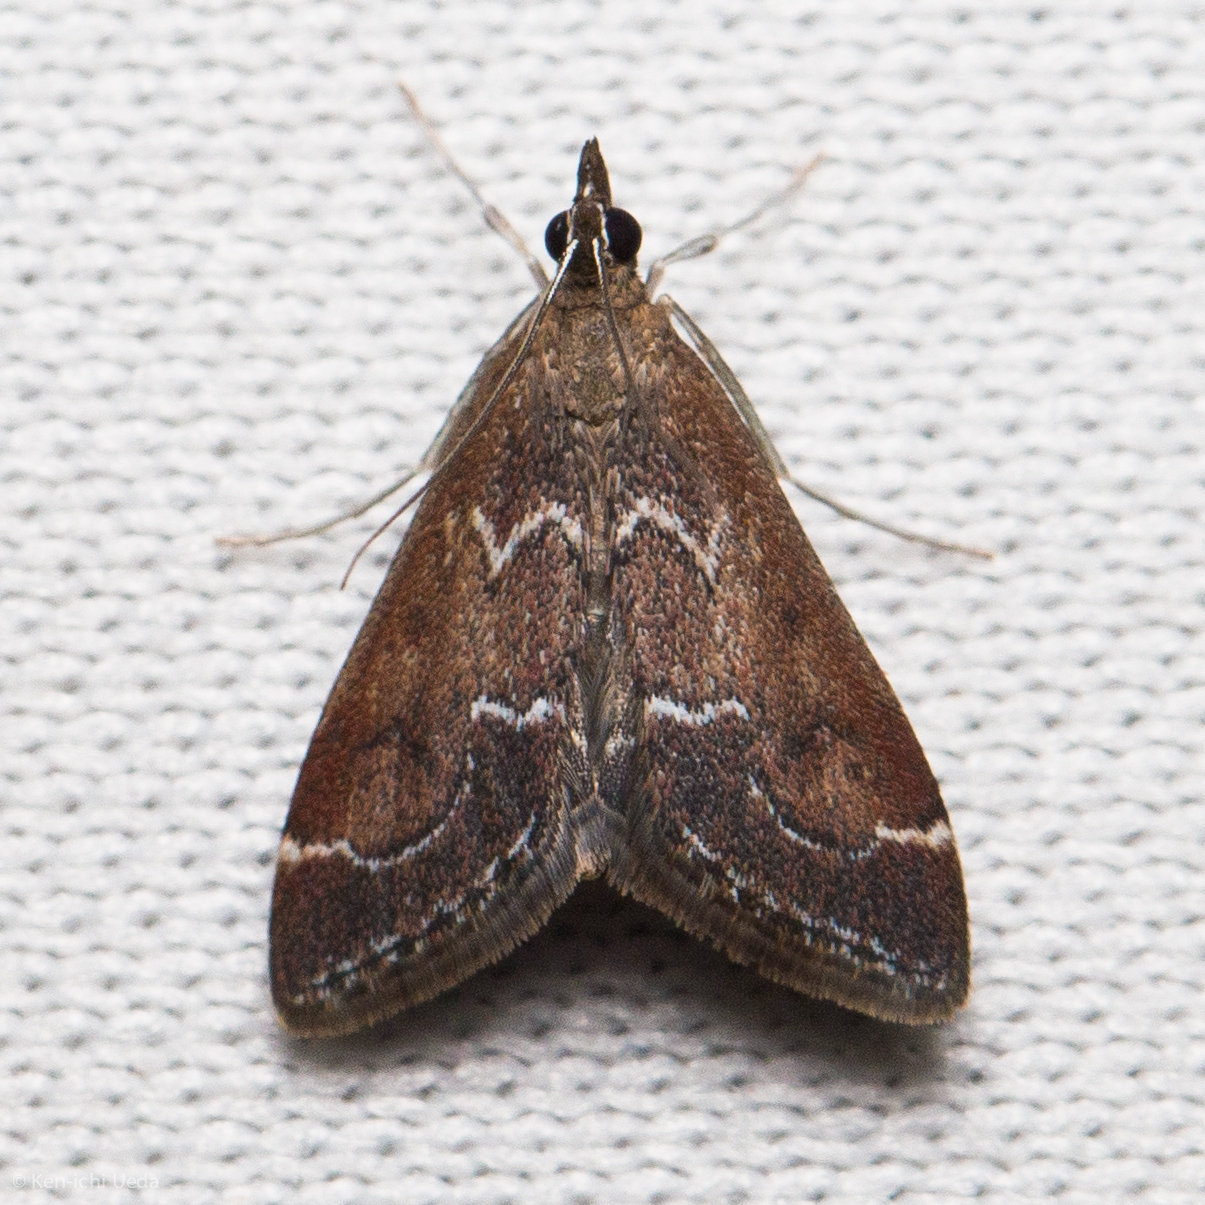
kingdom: Animalia
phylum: Arthropoda
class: Insecta
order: Lepidoptera
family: Crambidae
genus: Pyrausta
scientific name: Pyrausta napaealis
